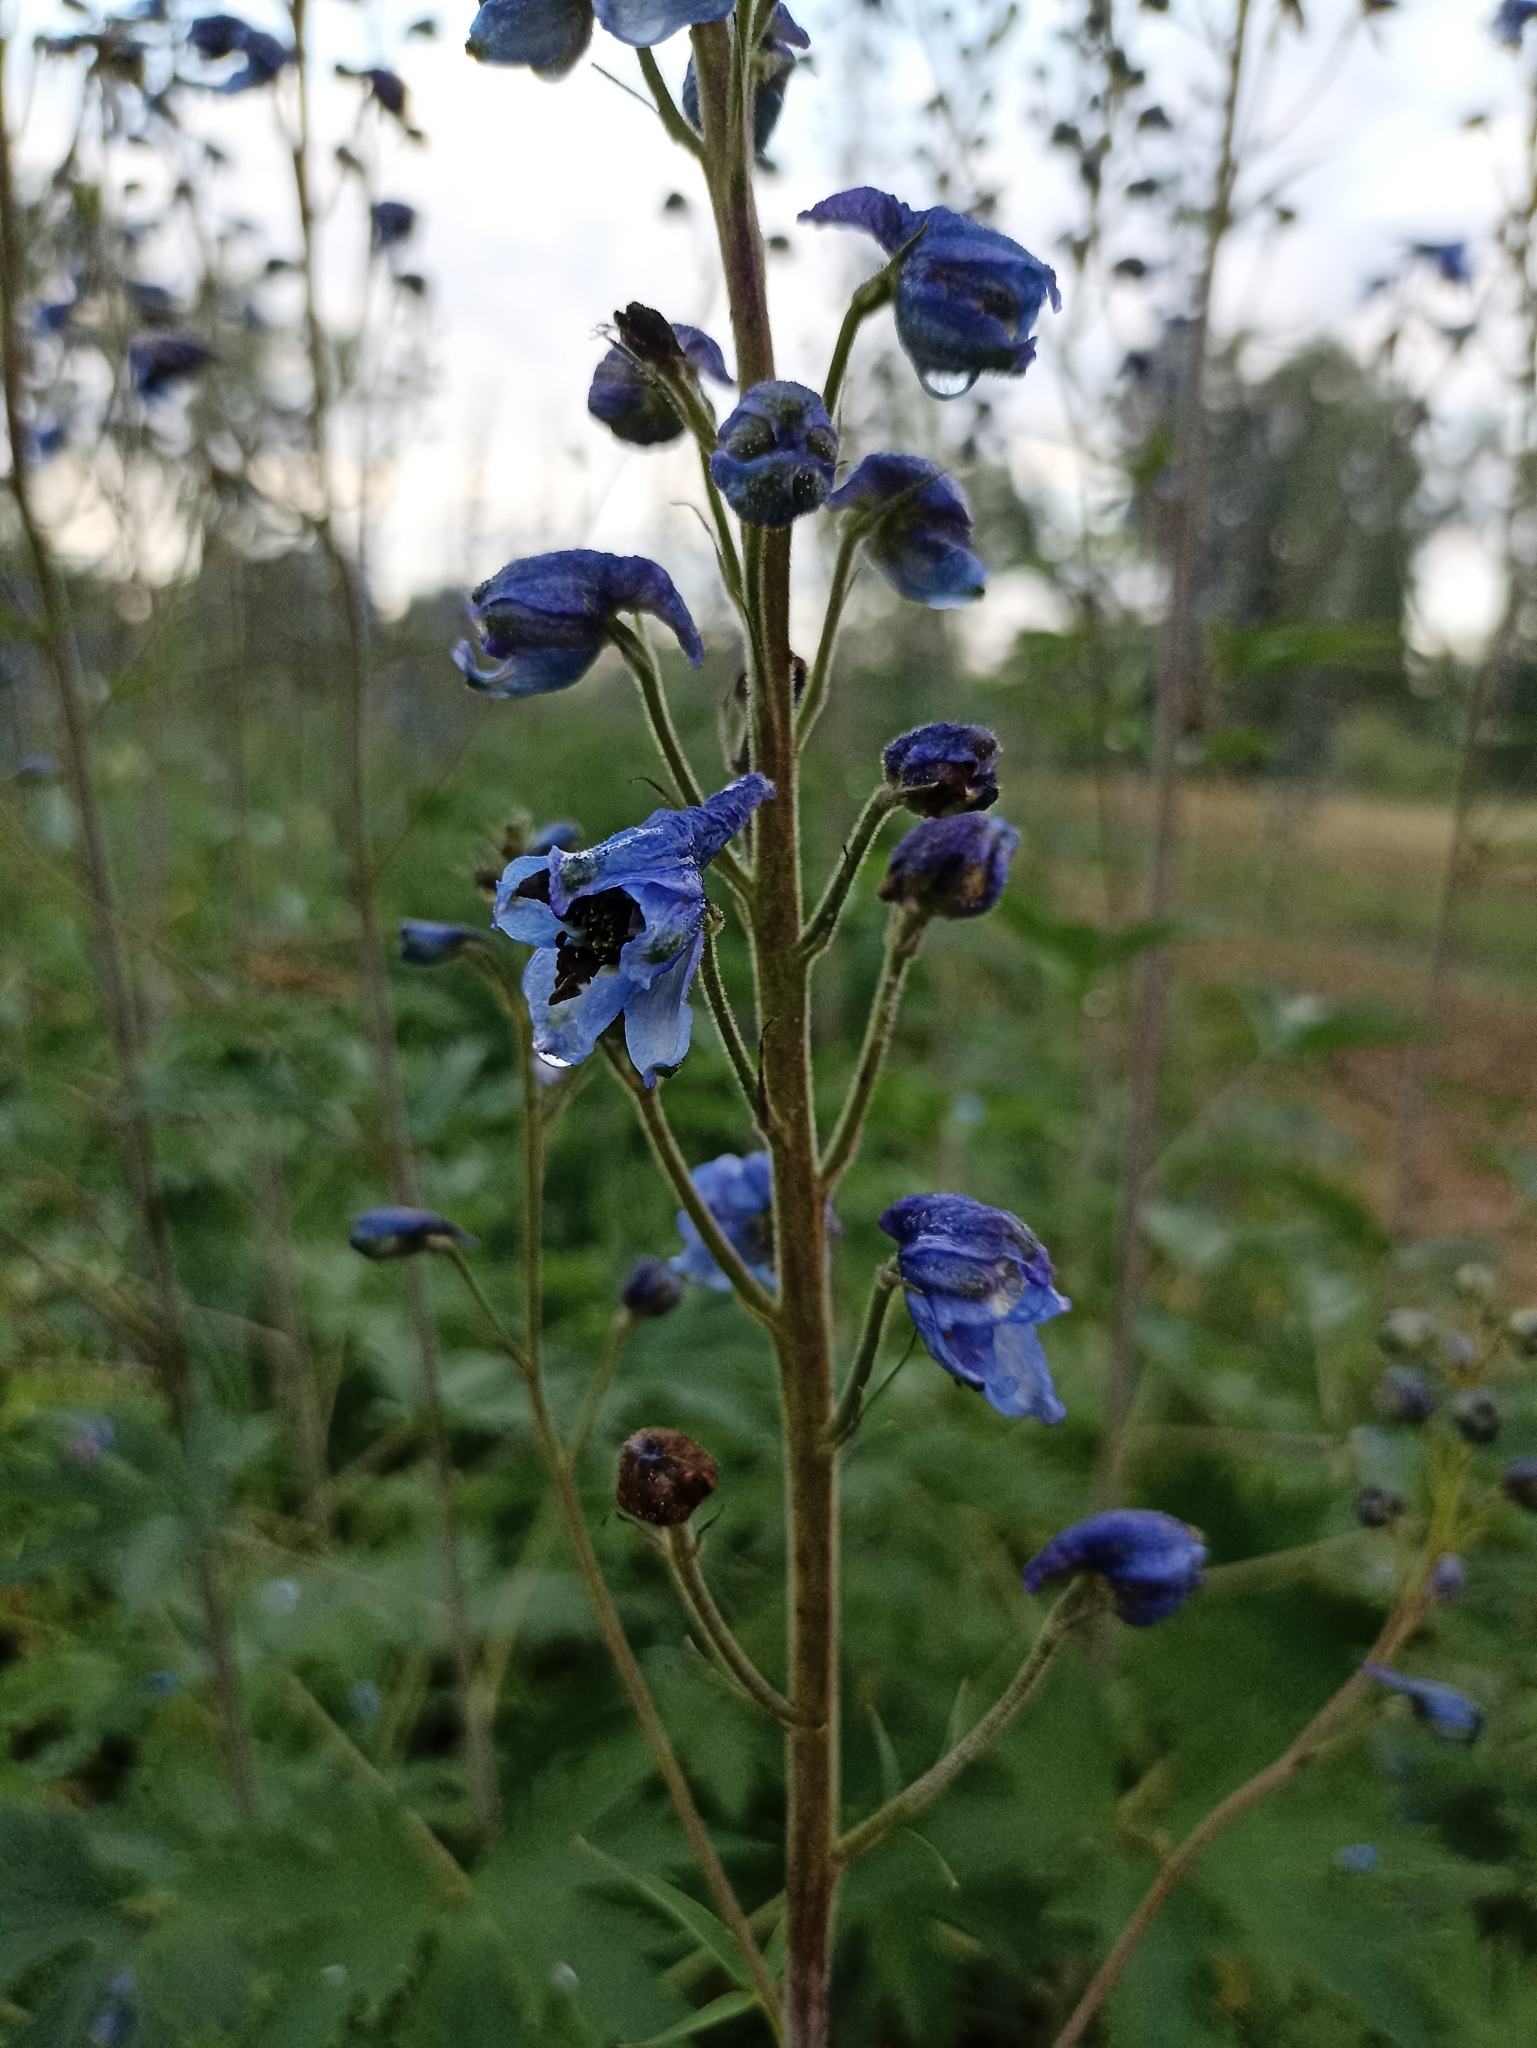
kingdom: Plantae
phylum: Tracheophyta
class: Magnoliopsida
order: Ranunculales
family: Ranunculaceae
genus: Delphinium
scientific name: Delphinium elatum
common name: Candle larkspur
